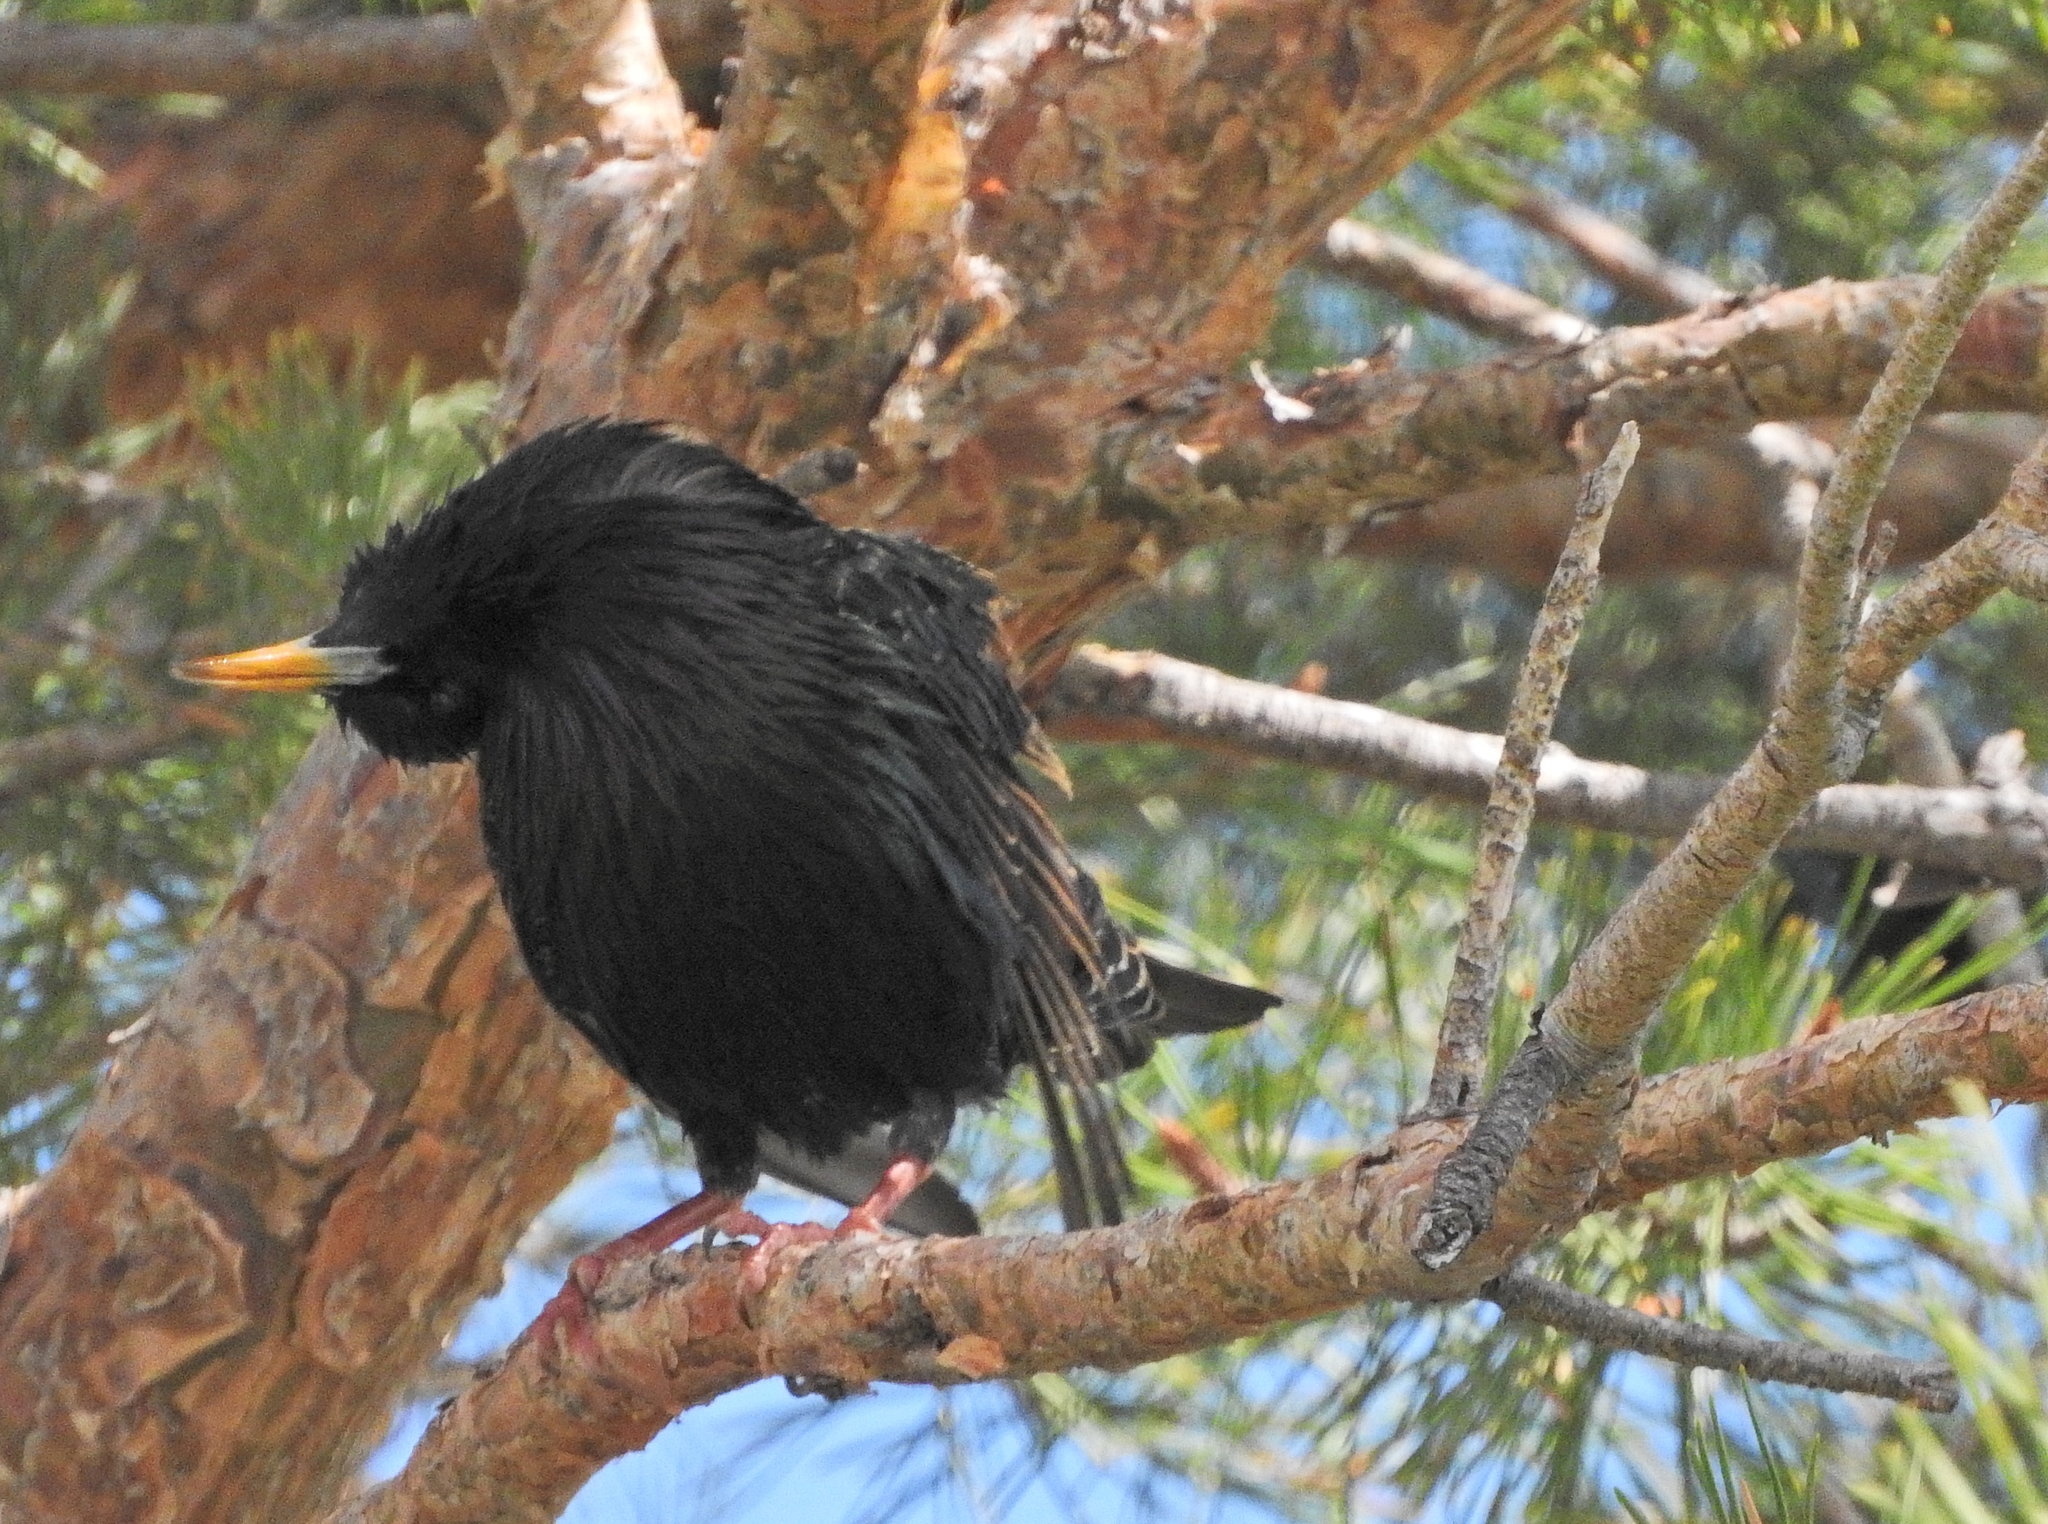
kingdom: Animalia
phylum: Chordata
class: Aves
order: Passeriformes
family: Sturnidae
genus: Sturnus
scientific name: Sturnus vulgaris
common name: Common starling
